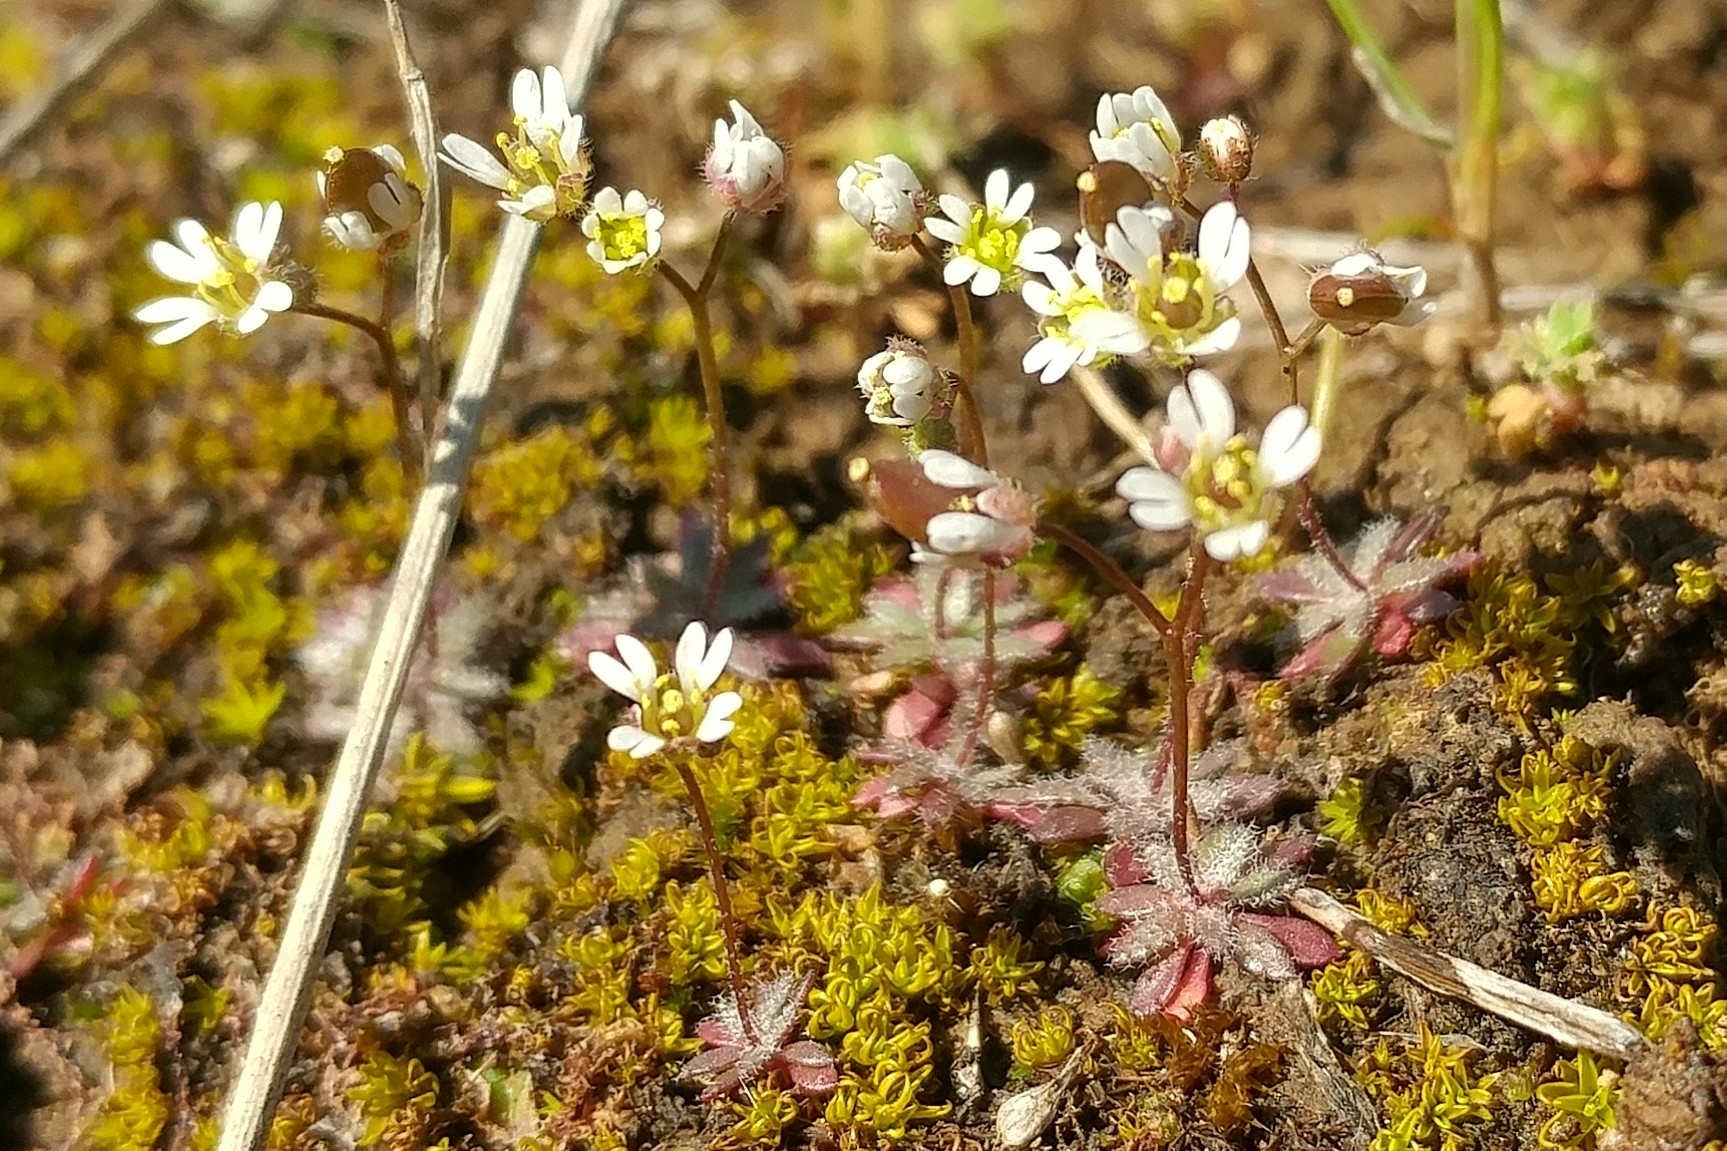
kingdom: Plantae
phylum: Tracheophyta
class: Magnoliopsida
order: Brassicales
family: Brassicaceae
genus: Draba
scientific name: Draba verna
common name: Spring draba
